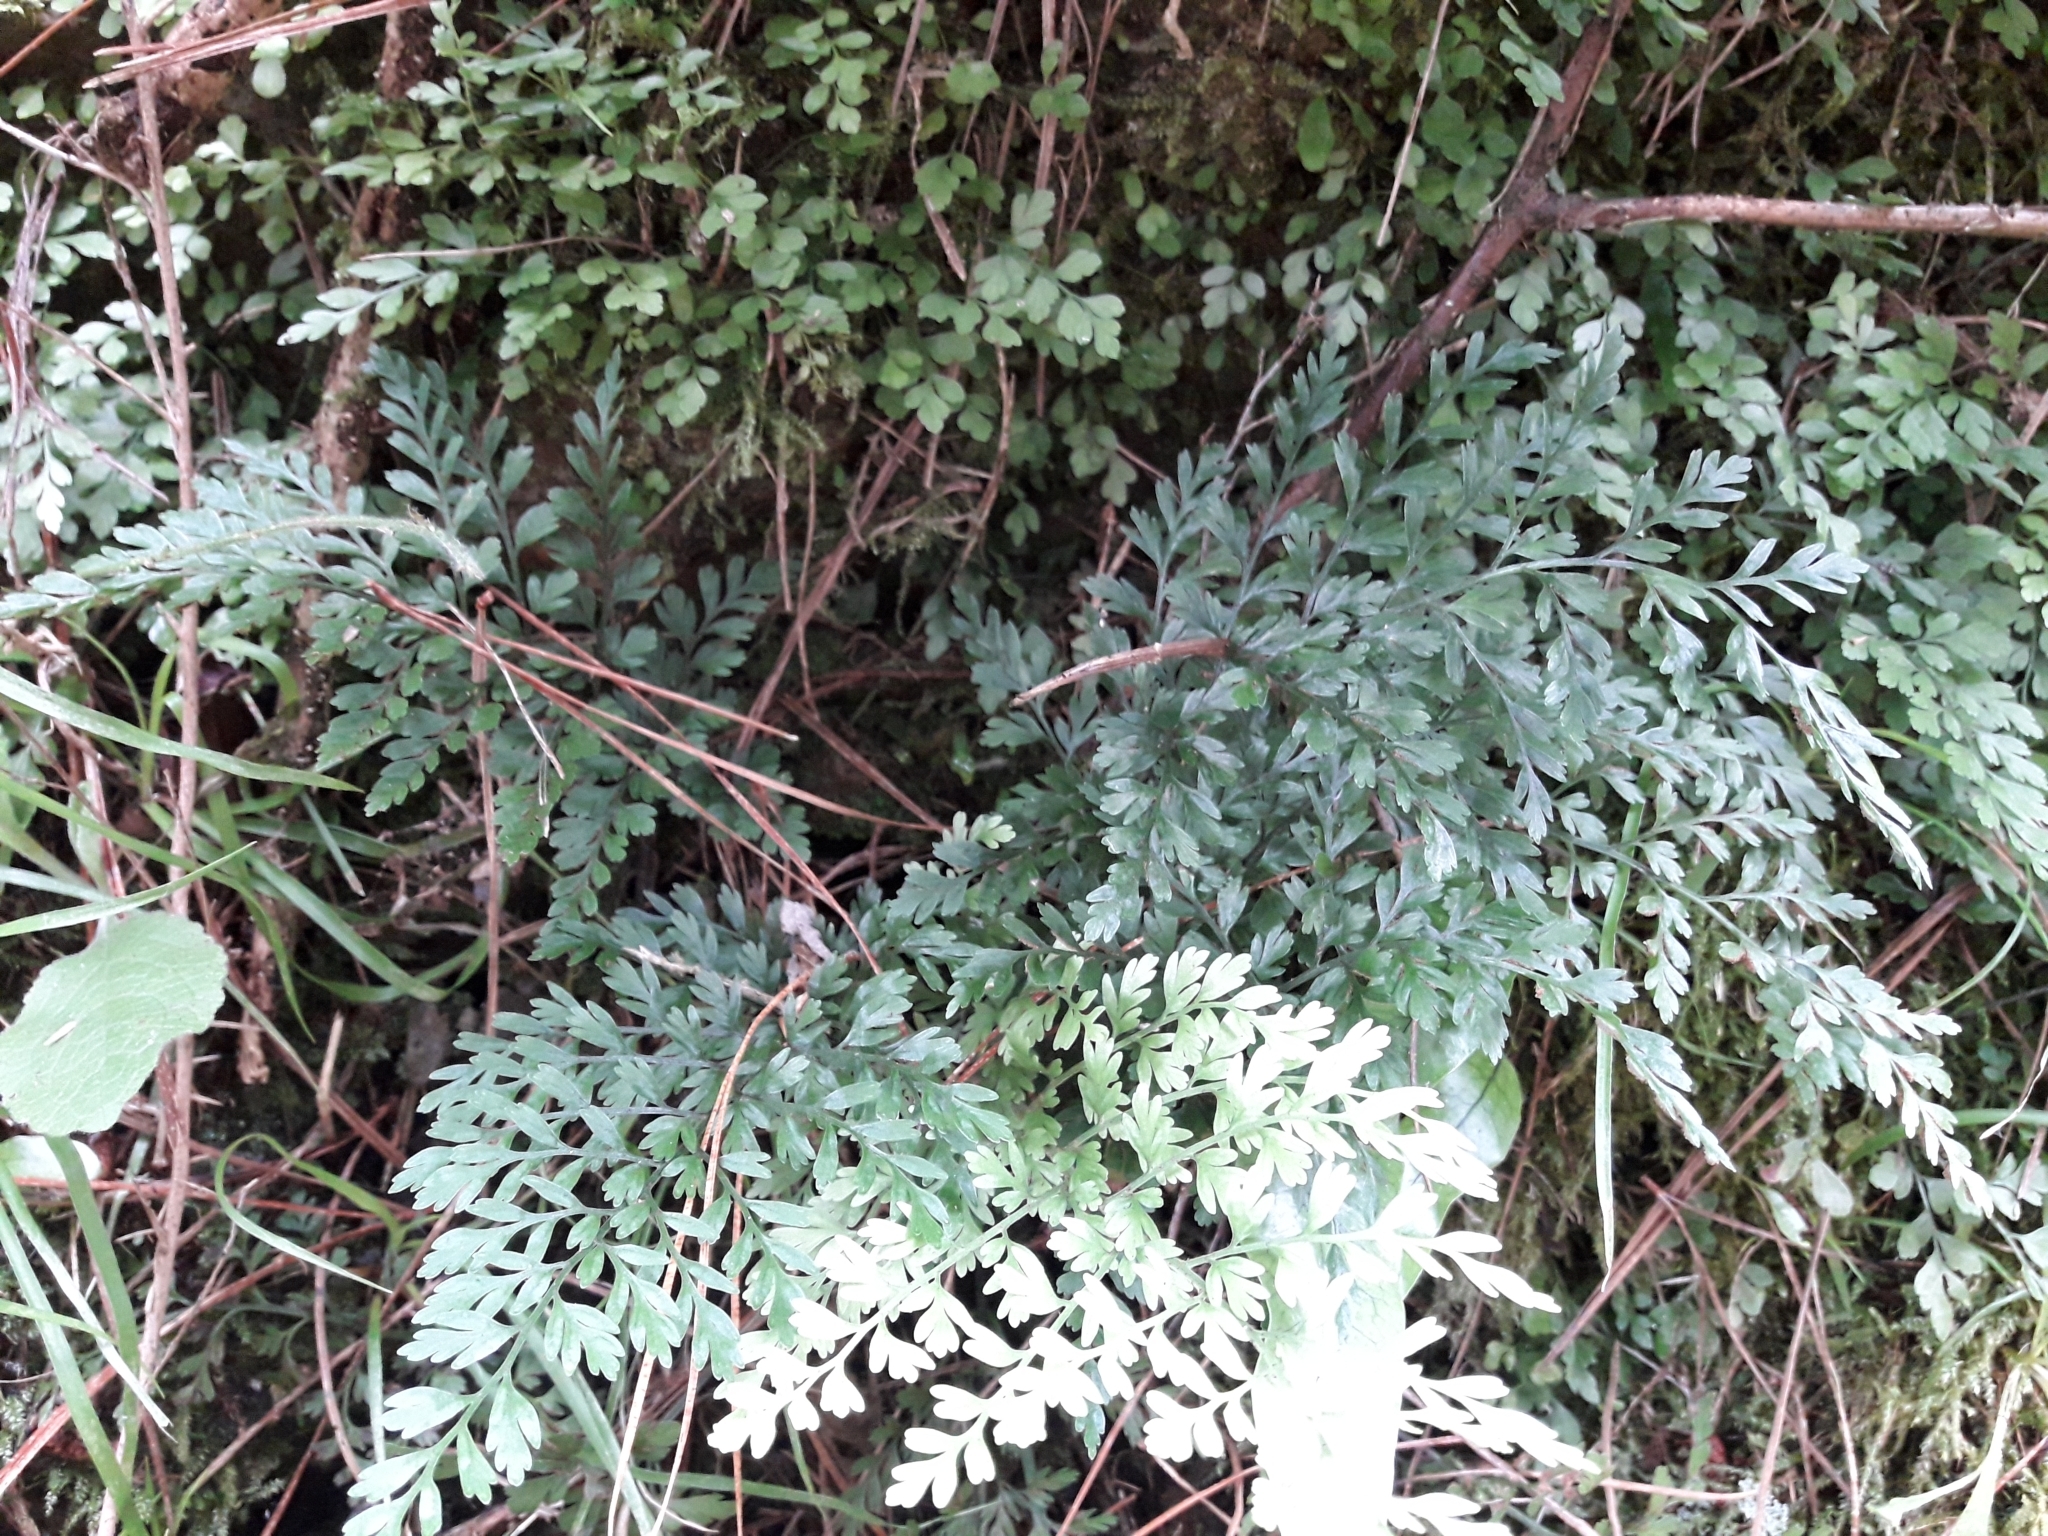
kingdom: Plantae
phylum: Tracheophyta
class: Polypodiopsida
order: Polypodiales
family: Aspleniaceae
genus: Asplenium
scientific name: Asplenium hookerianum
